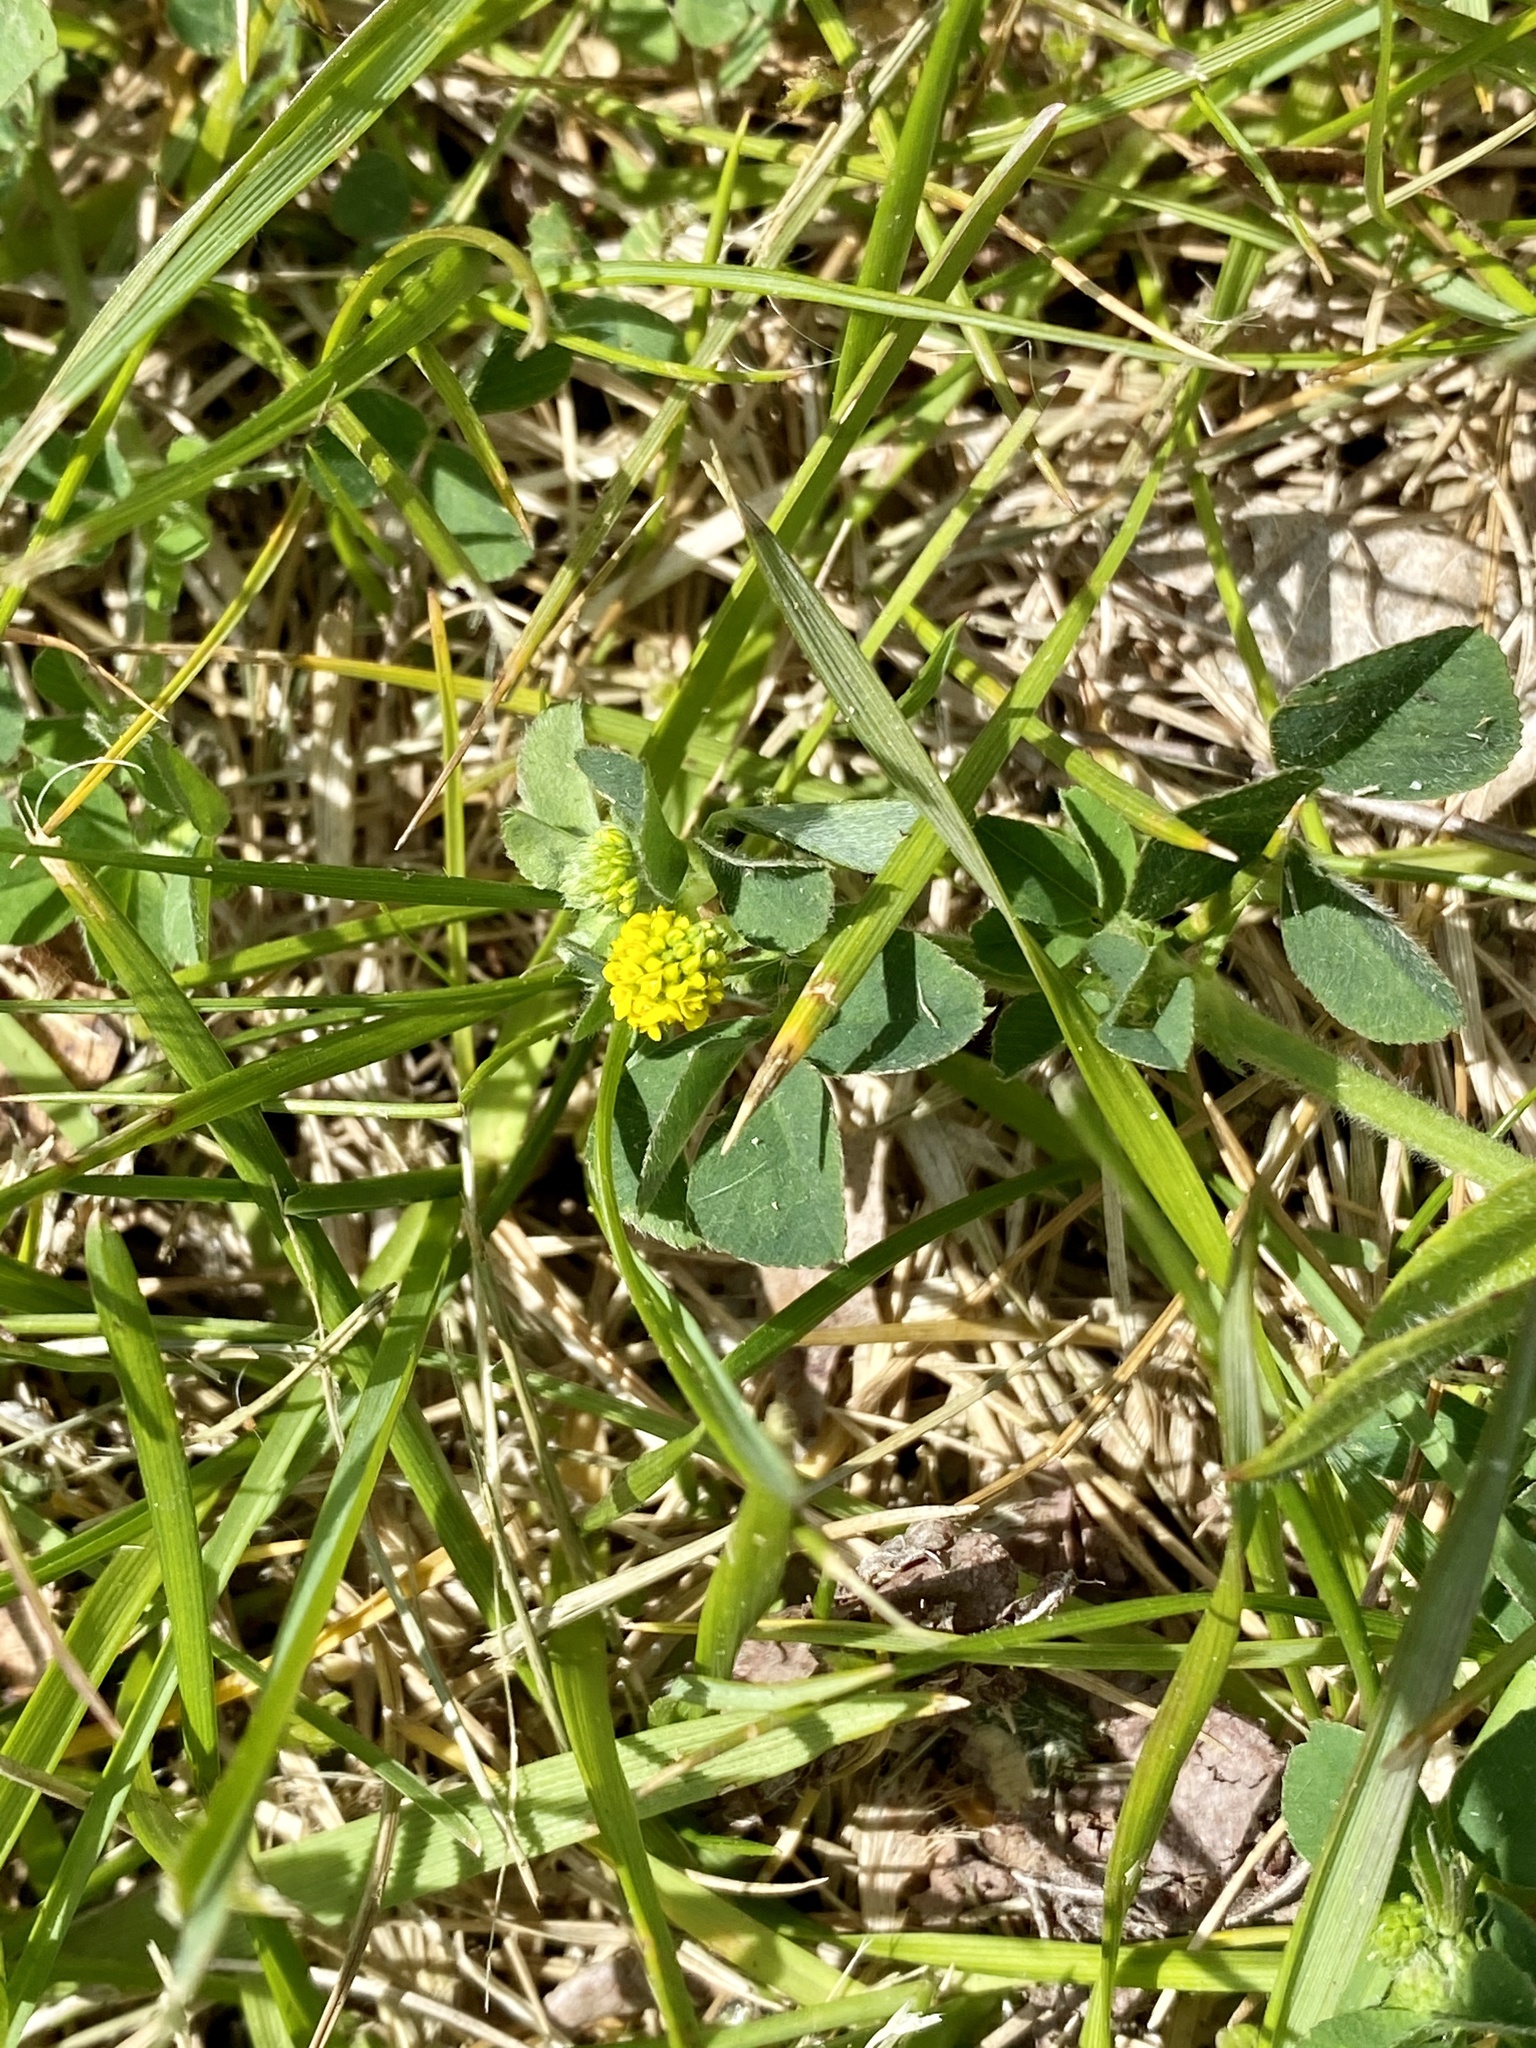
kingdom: Plantae
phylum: Tracheophyta
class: Magnoliopsida
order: Fabales
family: Fabaceae
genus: Medicago
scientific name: Medicago lupulina
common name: Black medick
